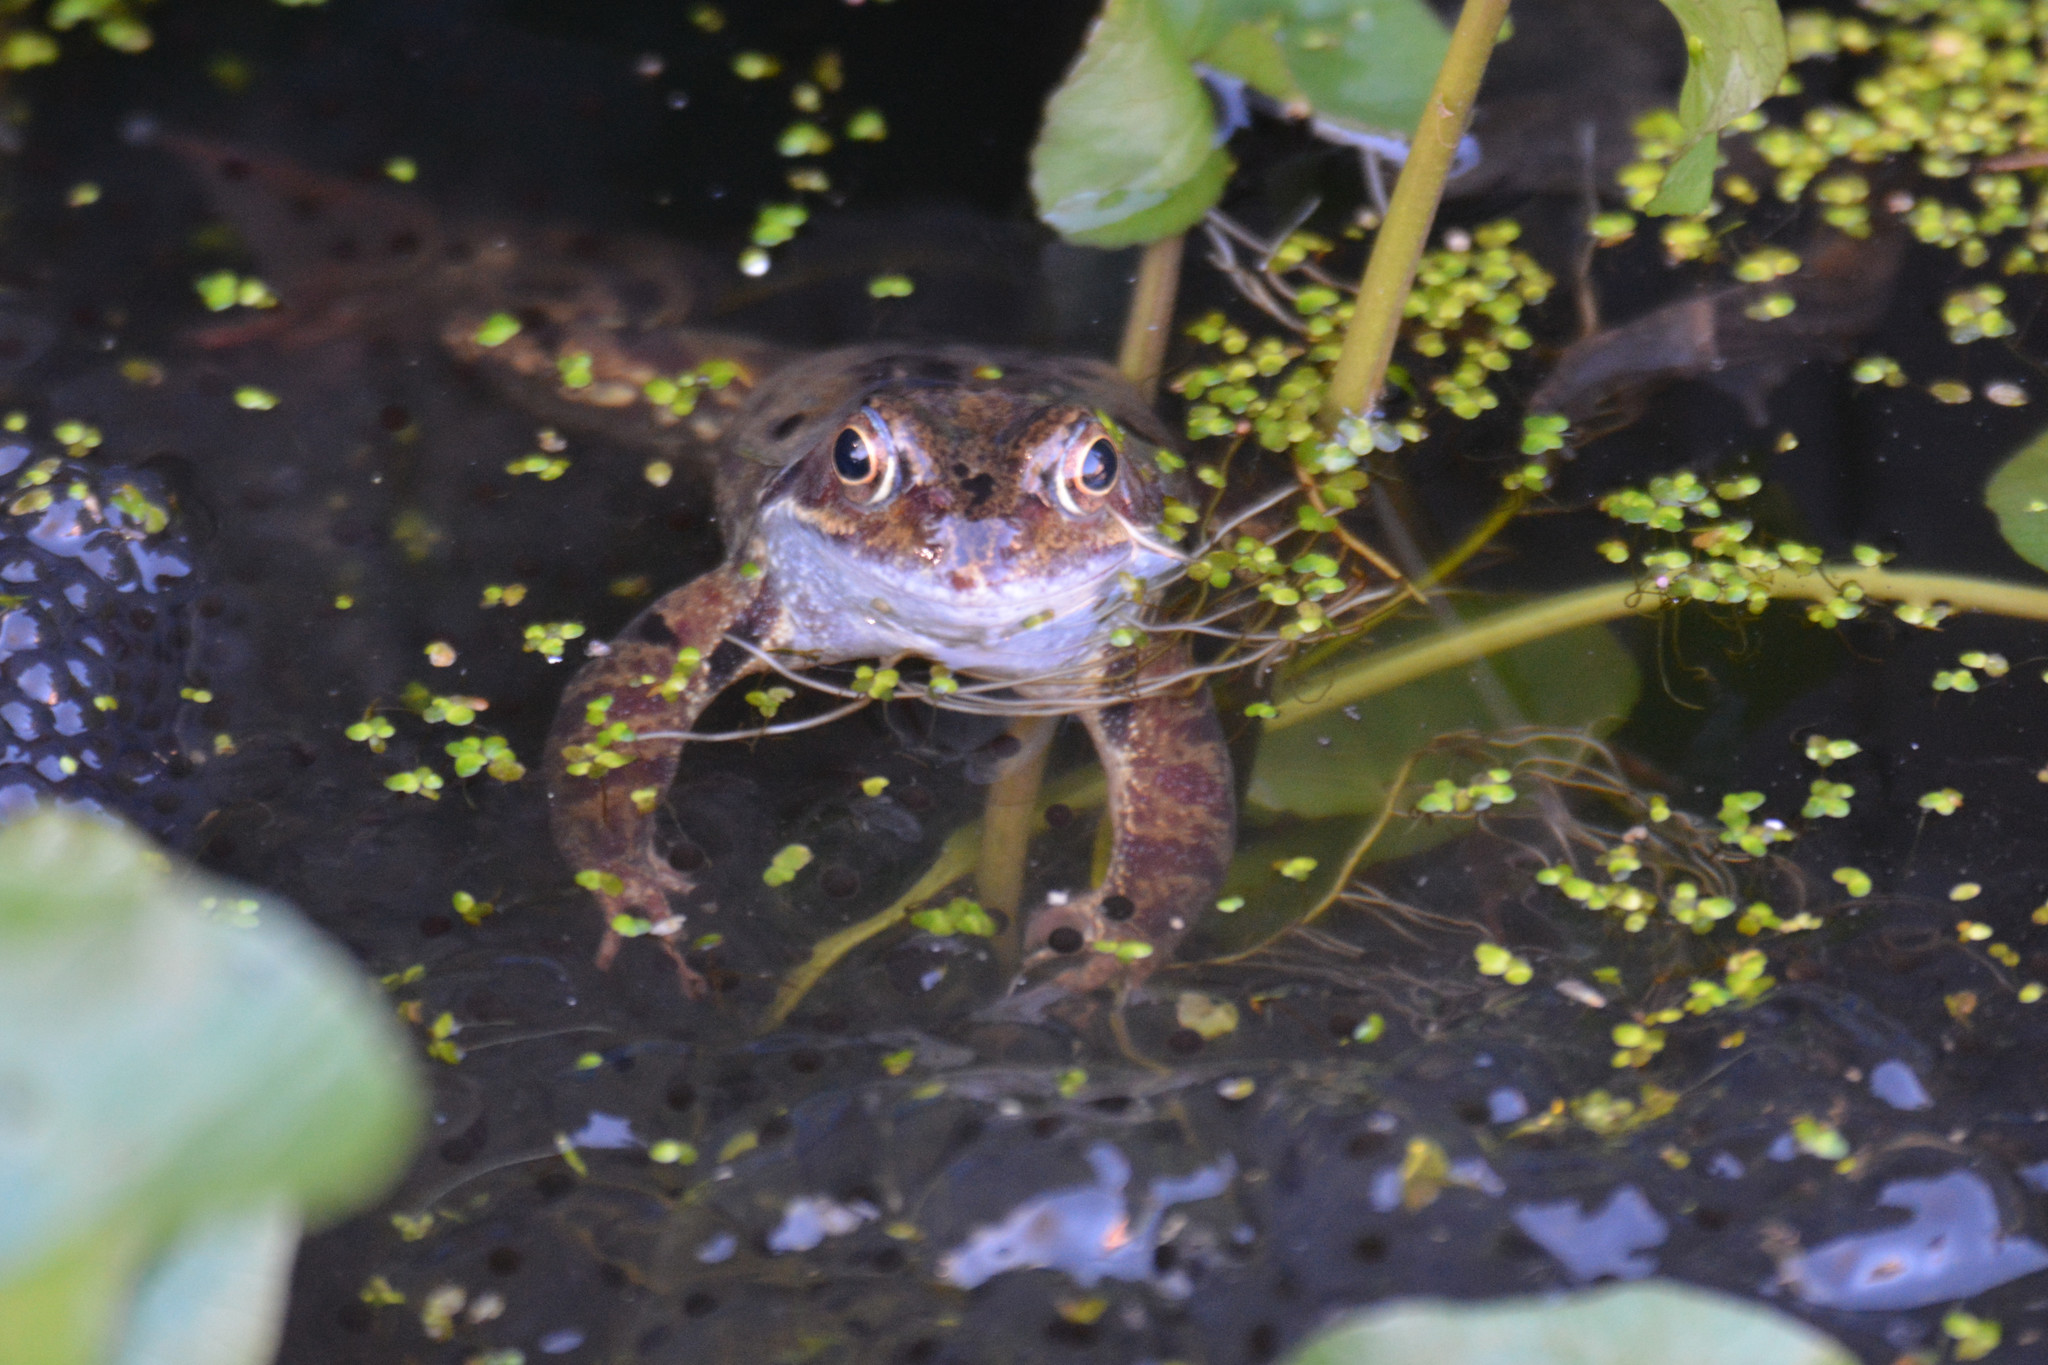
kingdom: Animalia
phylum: Chordata
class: Amphibia
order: Anura
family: Ranidae
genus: Rana
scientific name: Rana temporaria
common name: Common frog
